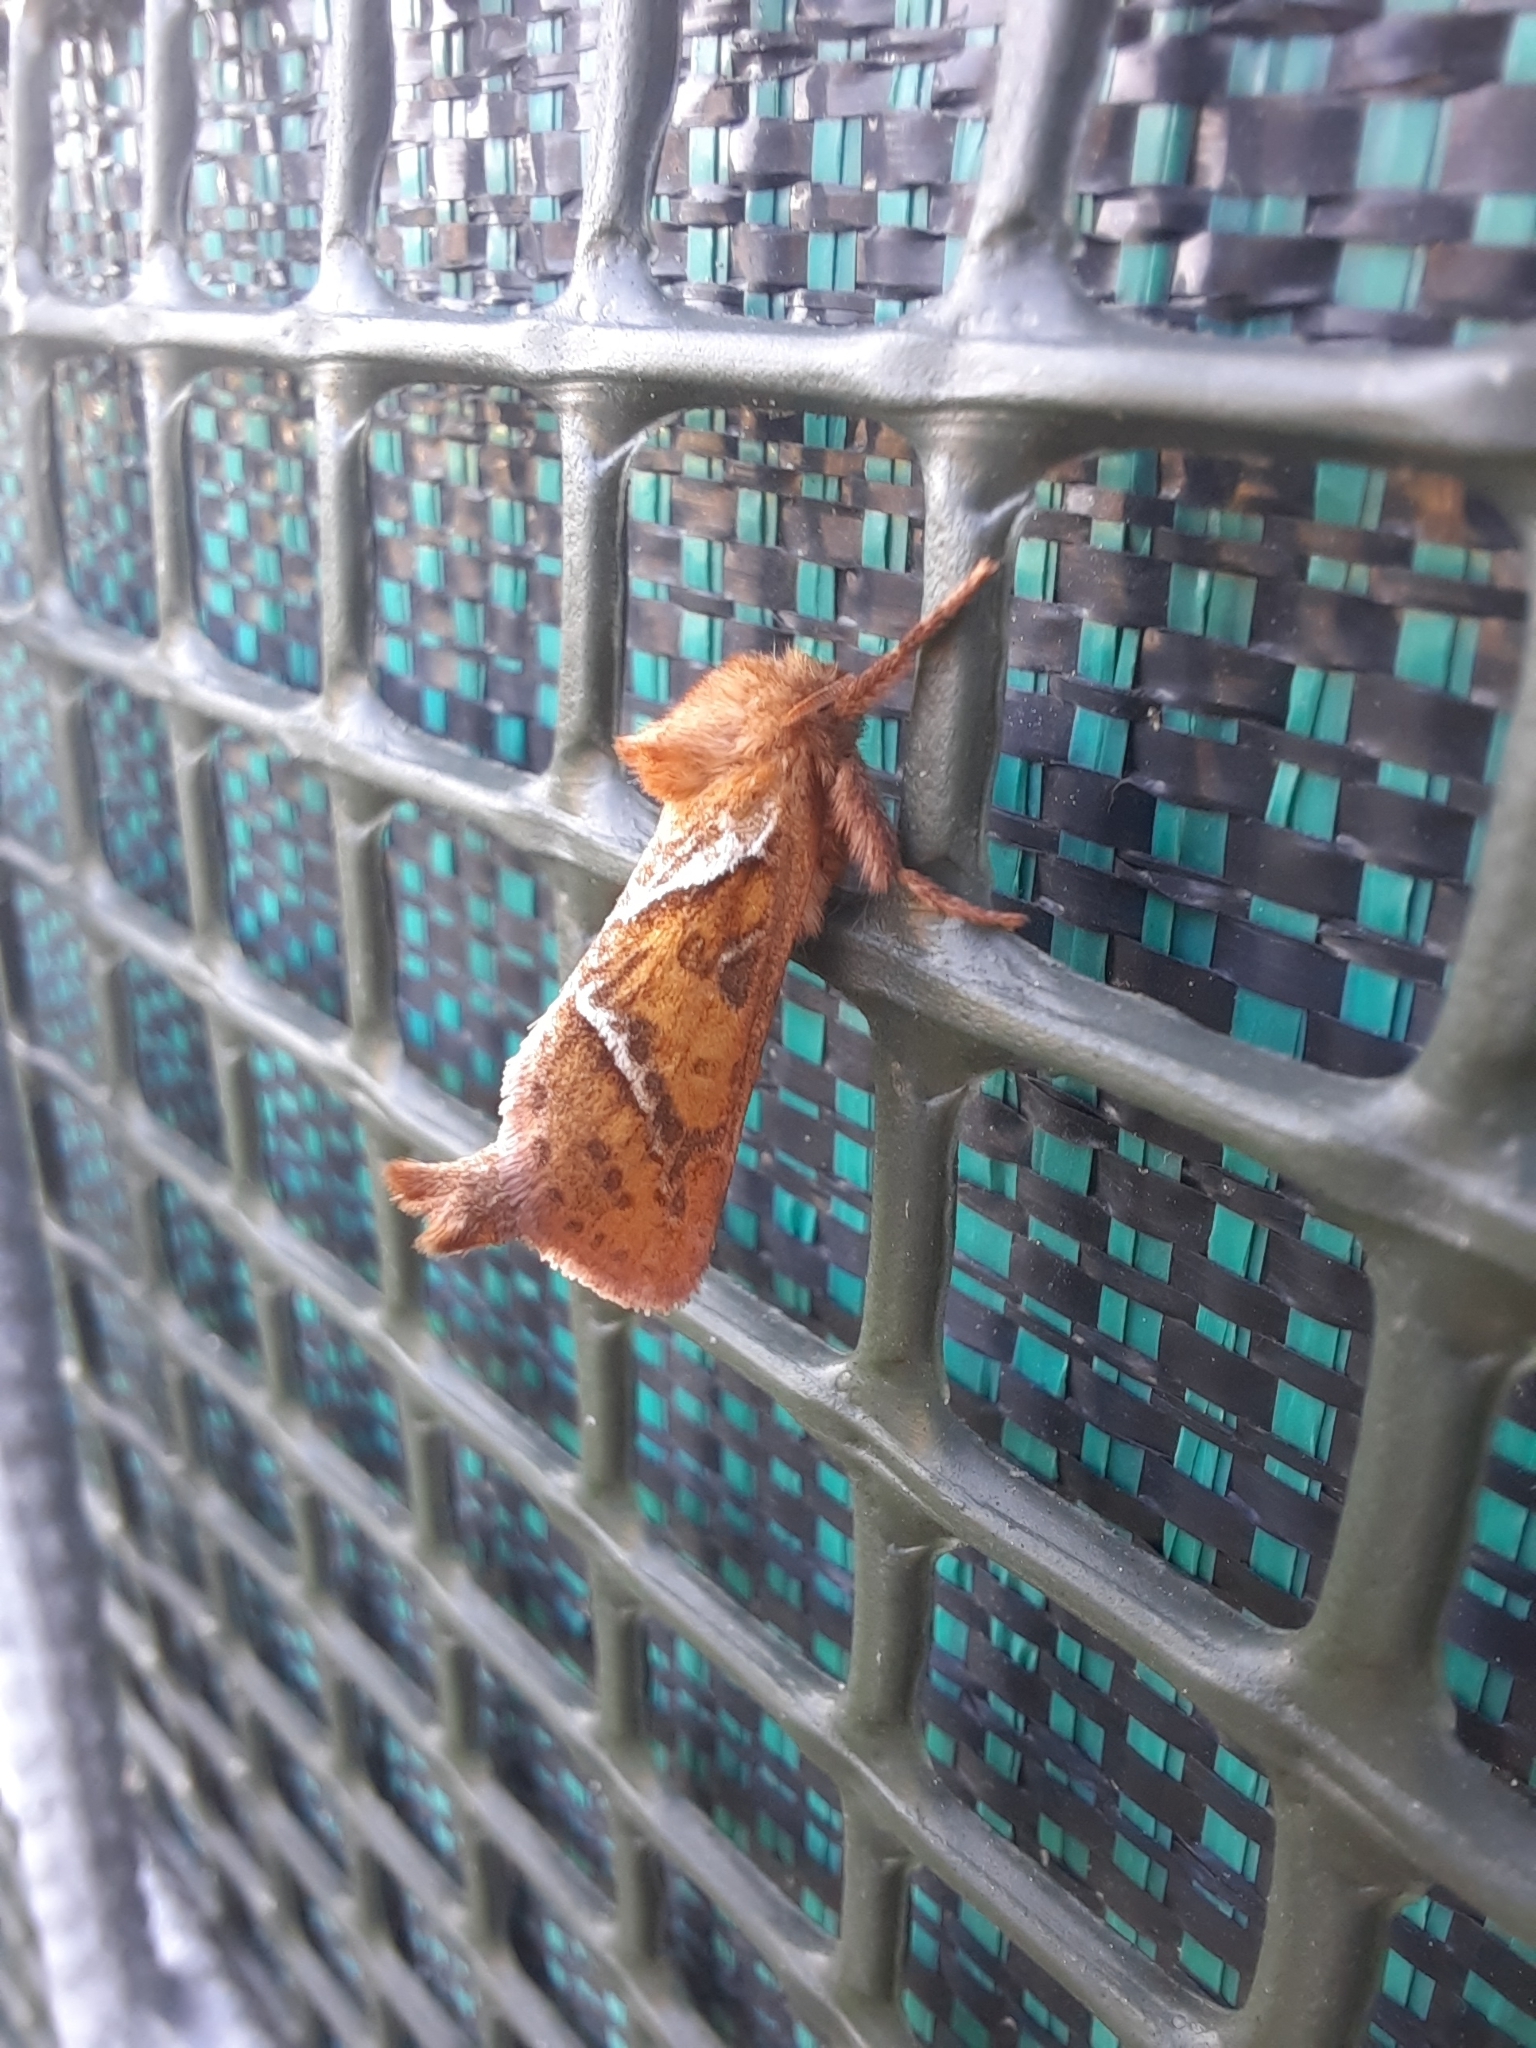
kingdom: Animalia
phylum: Arthropoda
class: Insecta
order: Lepidoptera
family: Hepialidae
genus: Triodia
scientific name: Triodia sylvina
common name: Orange swift
